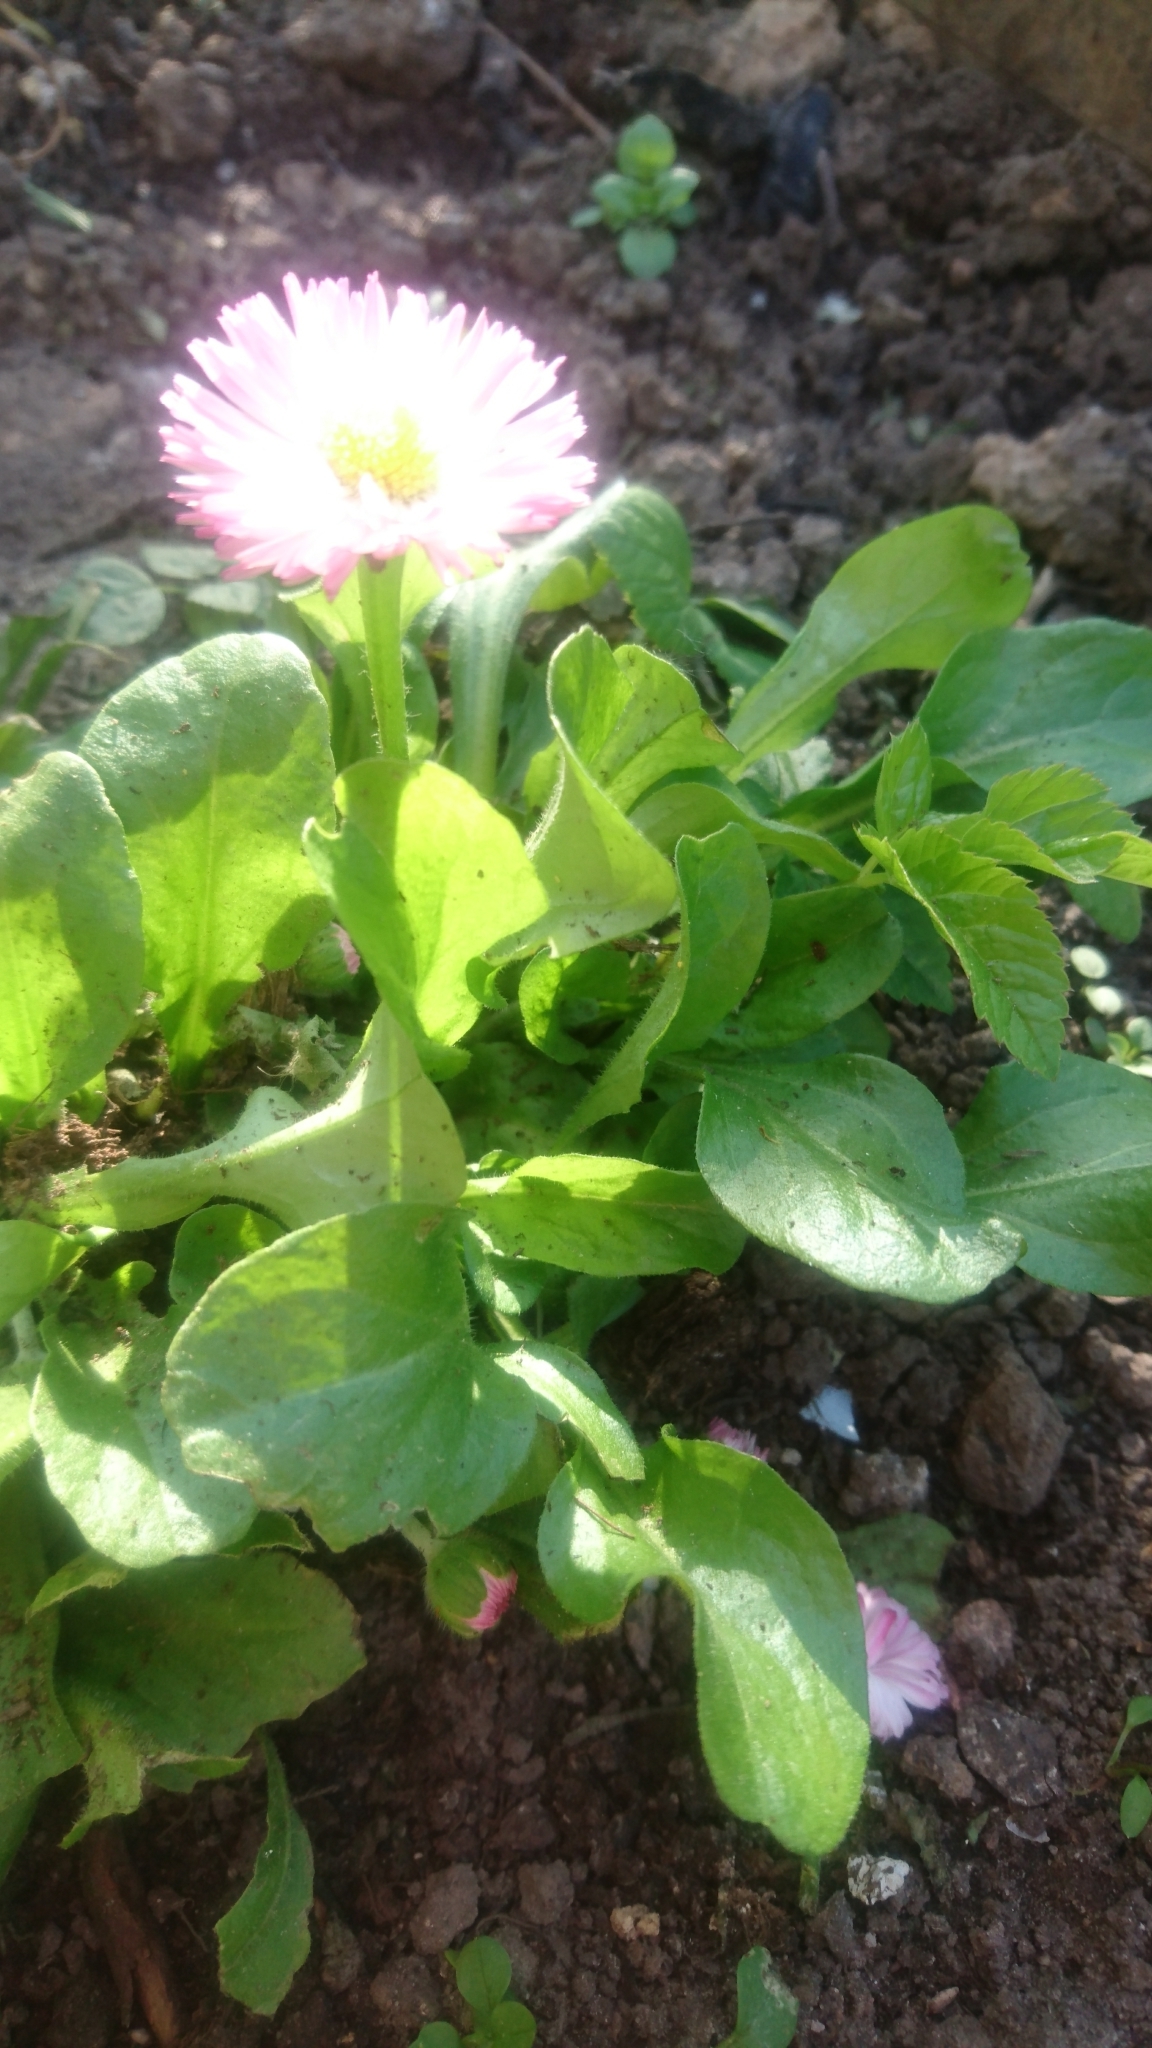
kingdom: Plantae
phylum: Tracheophyta
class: Magnoliopsida
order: Asterales
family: Asteraceae
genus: Bellis
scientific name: Bellis perennis
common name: Lawndaisy
